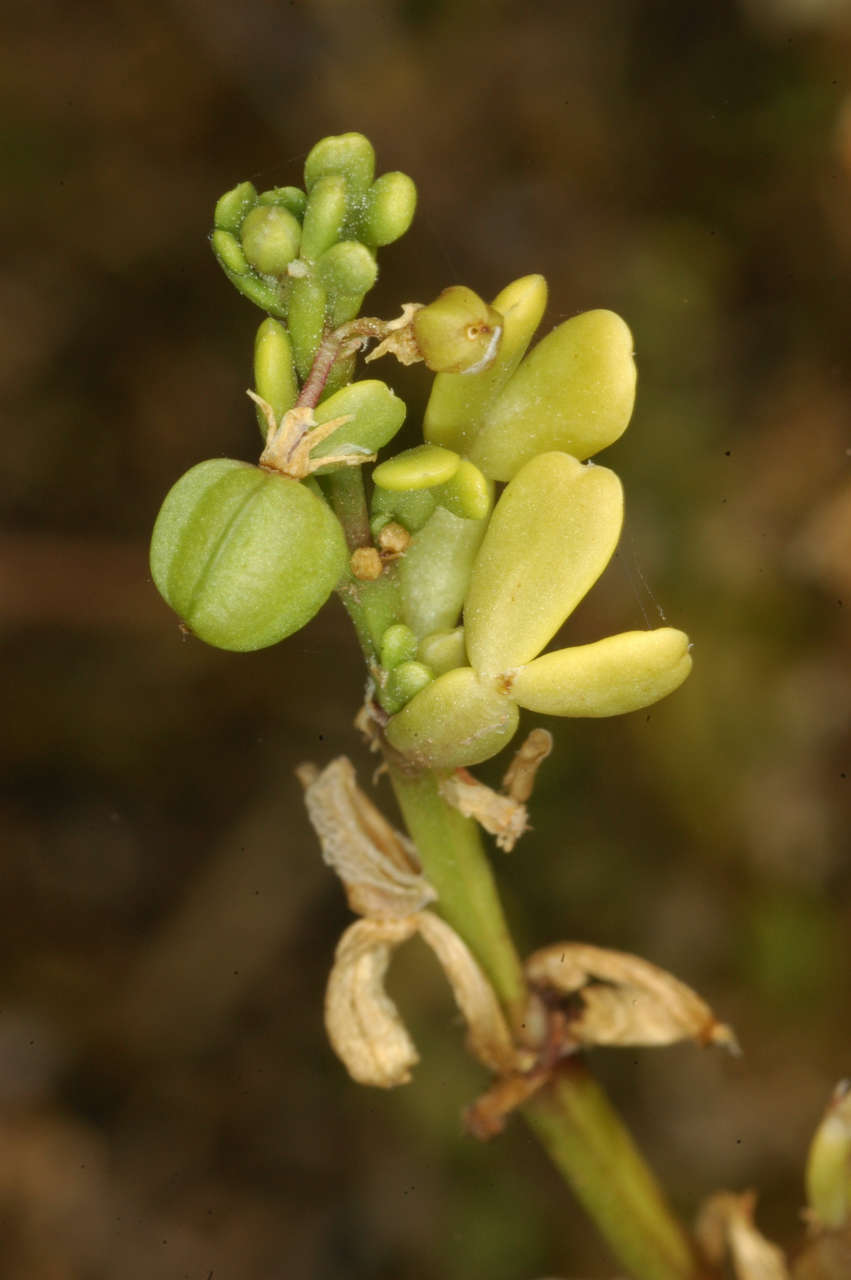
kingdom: Plantae
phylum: Tracheophyta
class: Magnoliopsida
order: Zygophyllales
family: Zygophyllaceae
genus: Roepera
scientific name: Roepera iodocarpa
